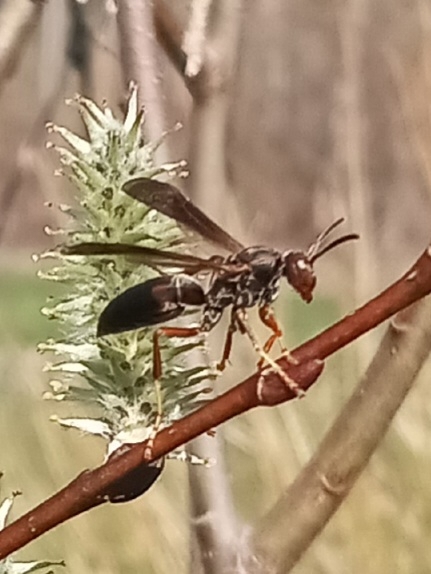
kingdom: Animalia
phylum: Arthropoda
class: Insecta
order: Hymenoptera
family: Eumenidae
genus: Polistes
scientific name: Polistes fuscatus
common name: Dark paper wasp
